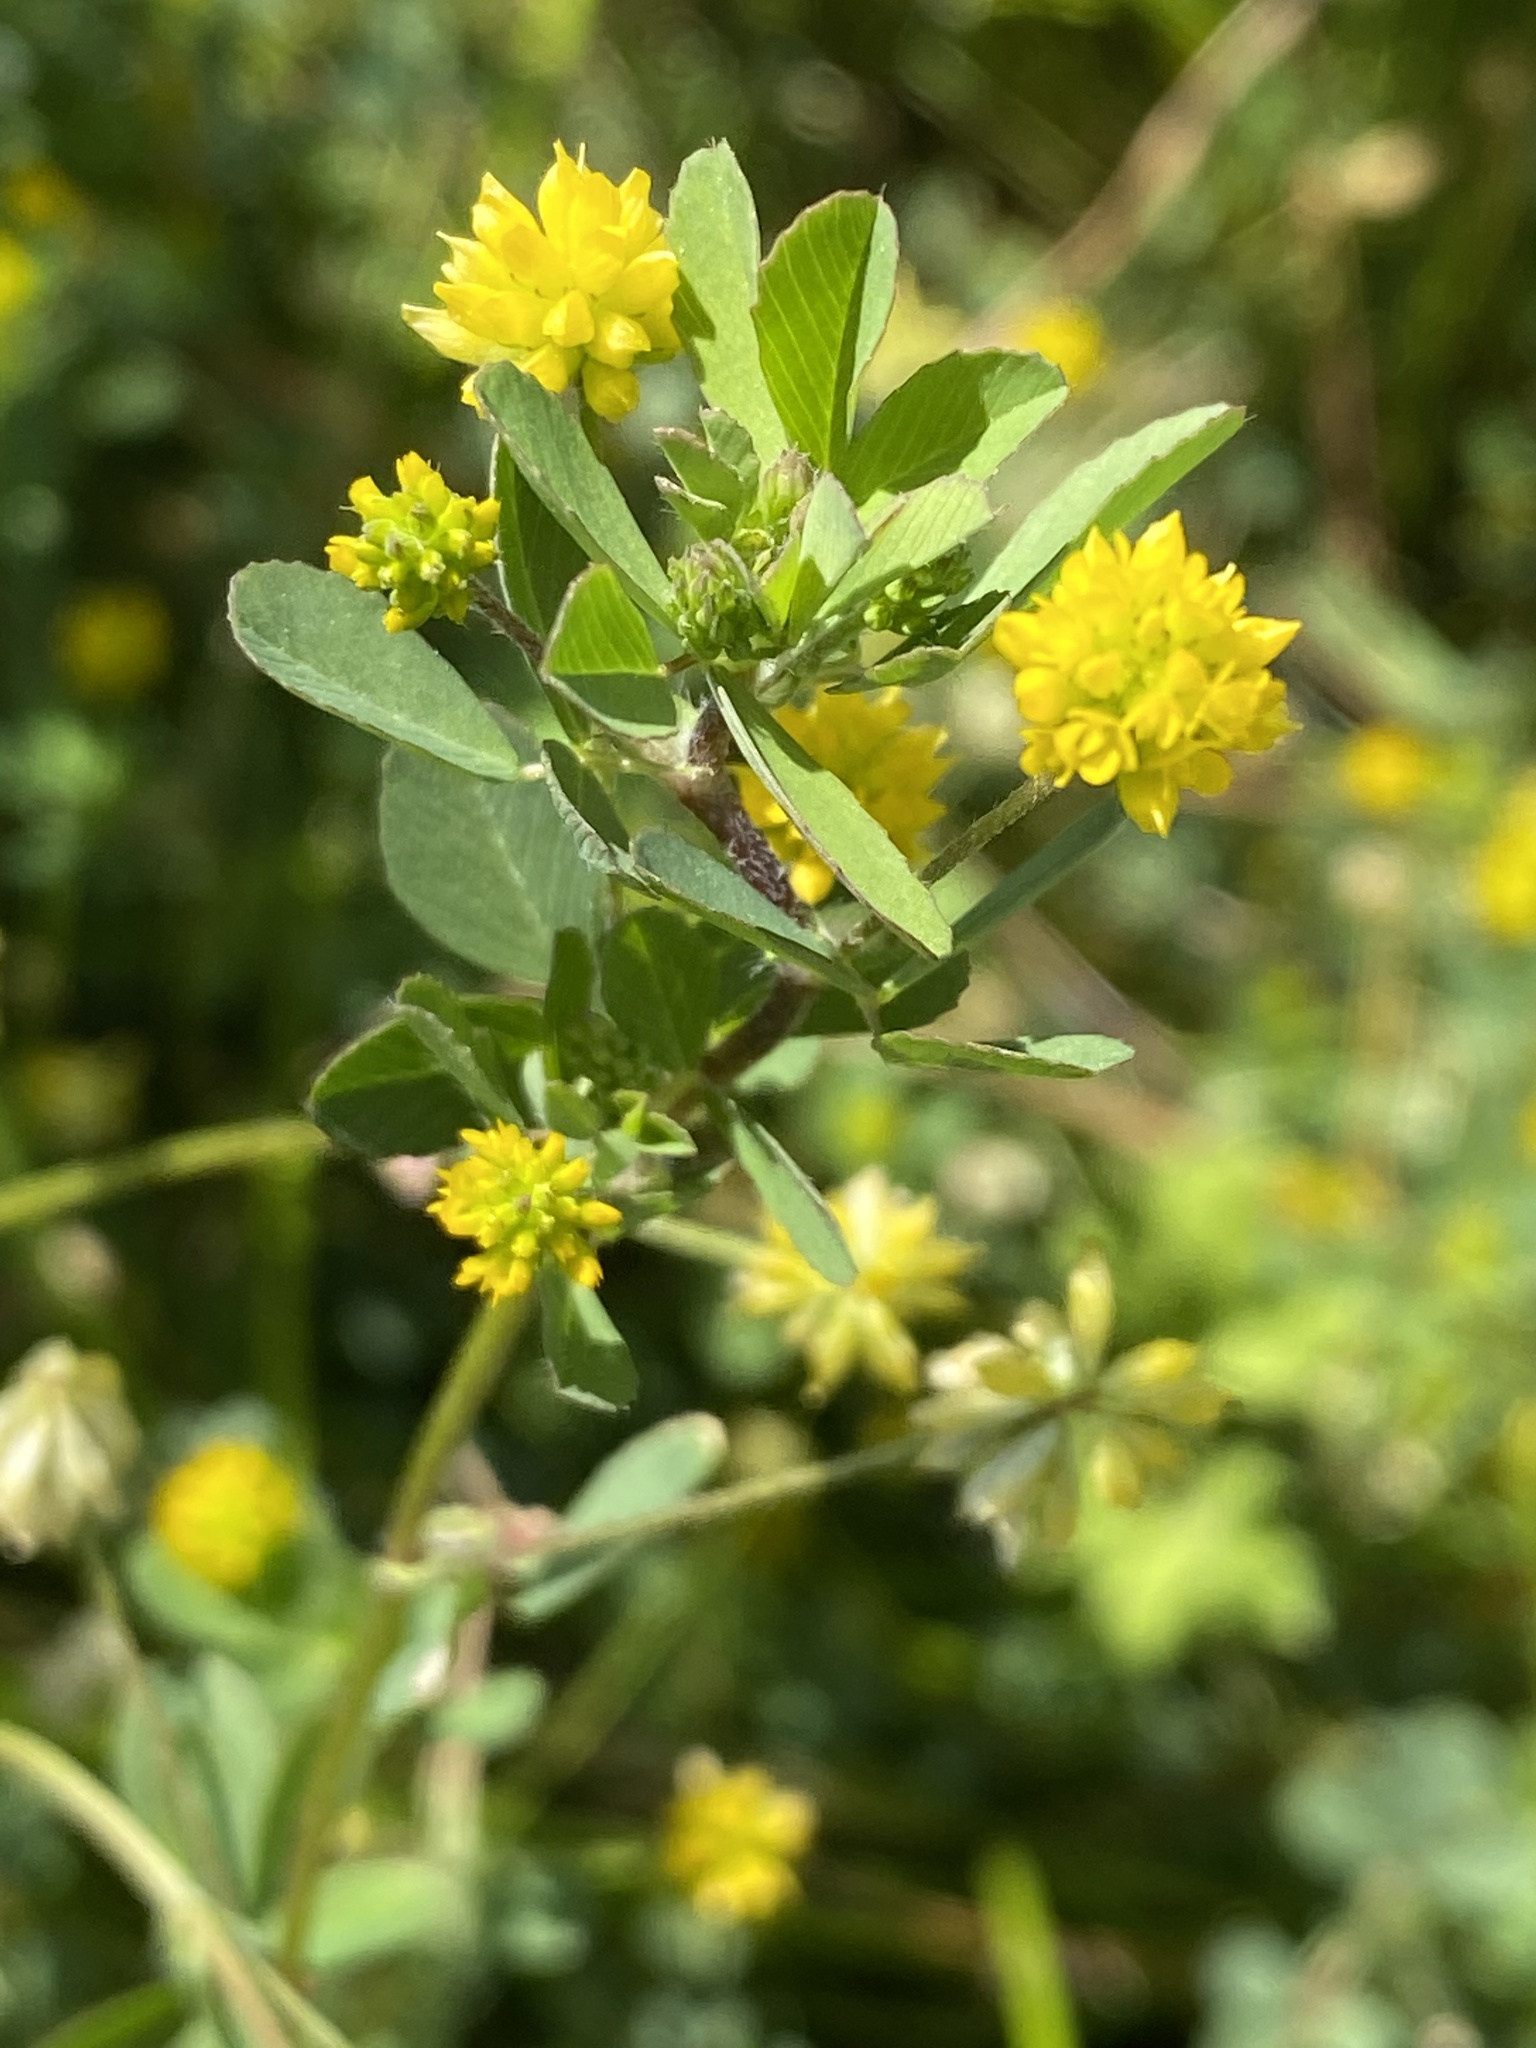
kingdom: Plantae
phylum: Tracheophyta
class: Magnoliopsida
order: Fabales
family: Fabaceae
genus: Trifolium
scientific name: Trifolium dubium
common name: Suckling clover
